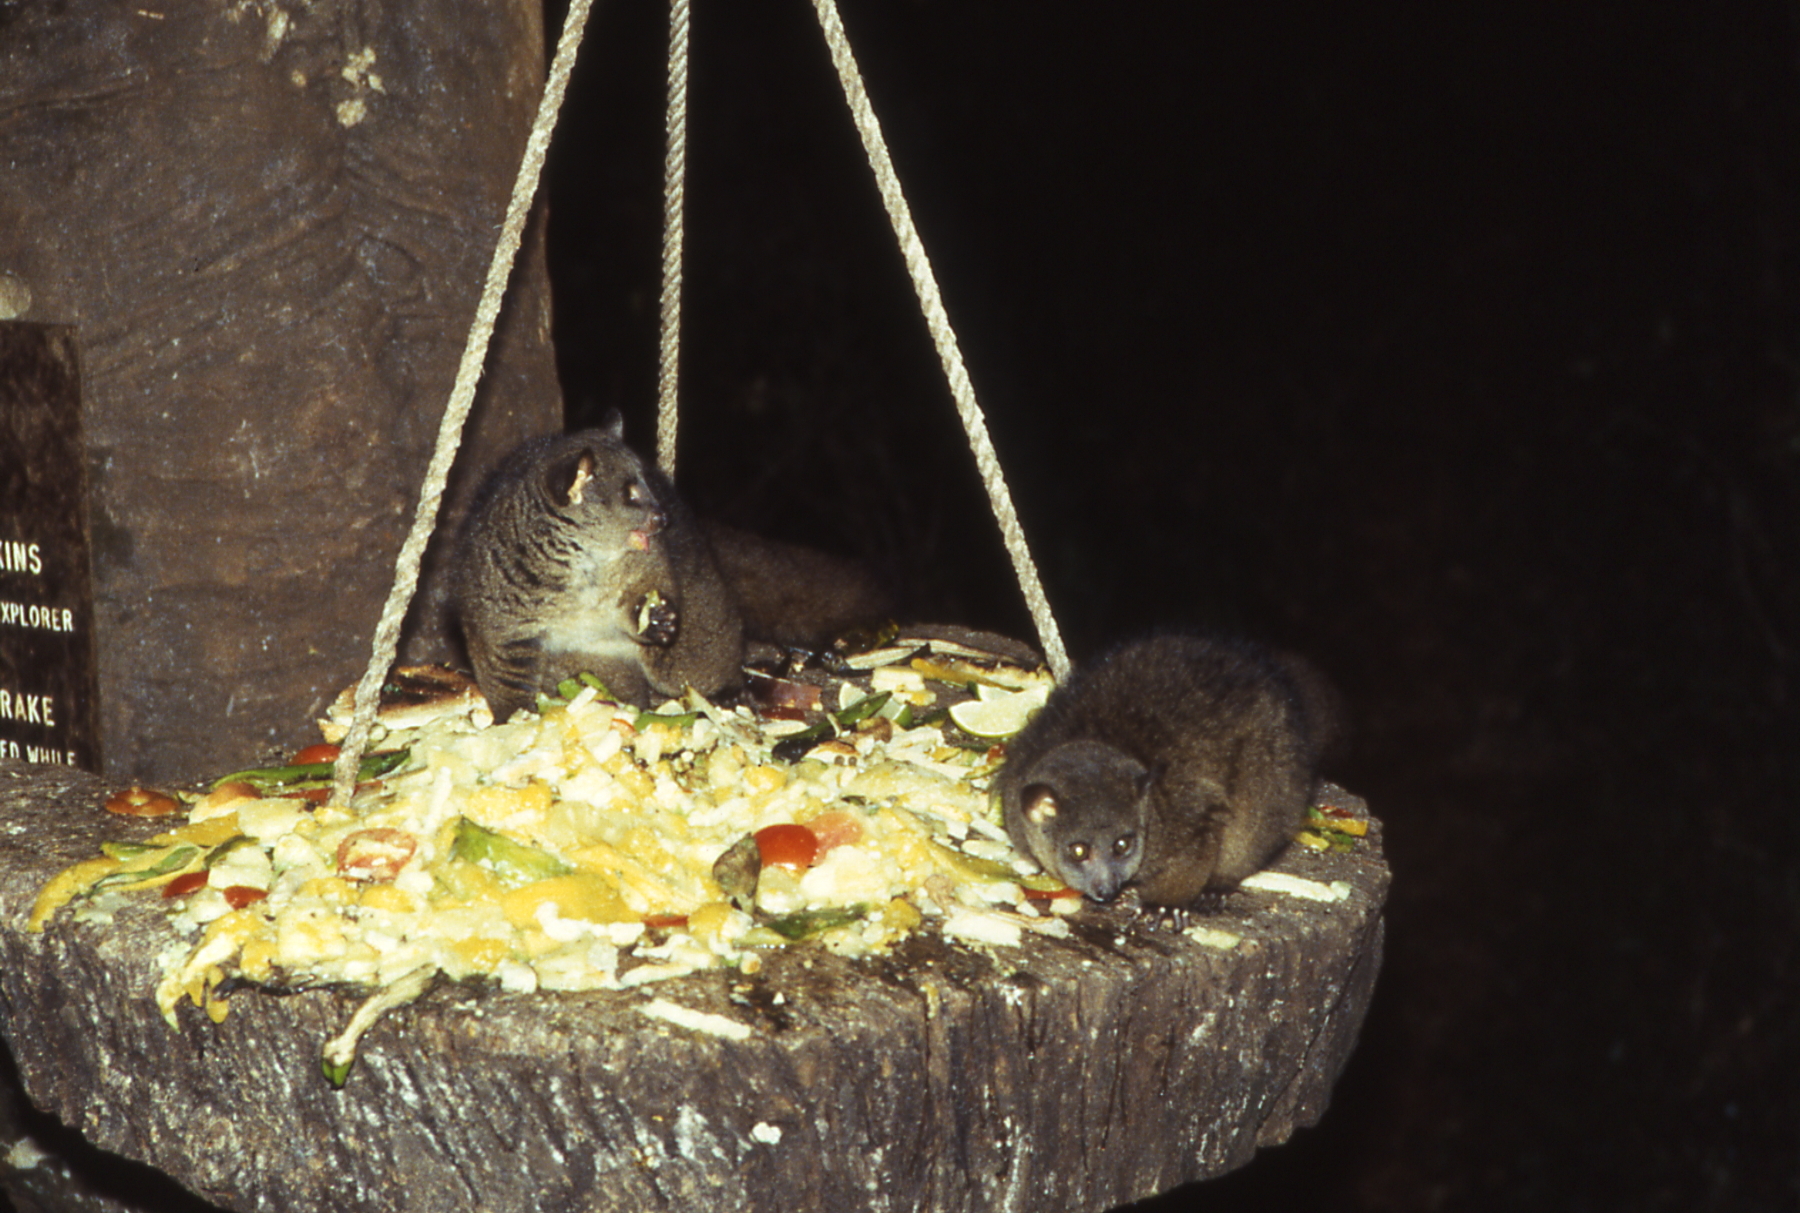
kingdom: Animalia
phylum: Chordata
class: Mammalia
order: Primates
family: Galagidae
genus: Otolemur
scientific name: Otolemur garnettii
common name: Northern greater galago
